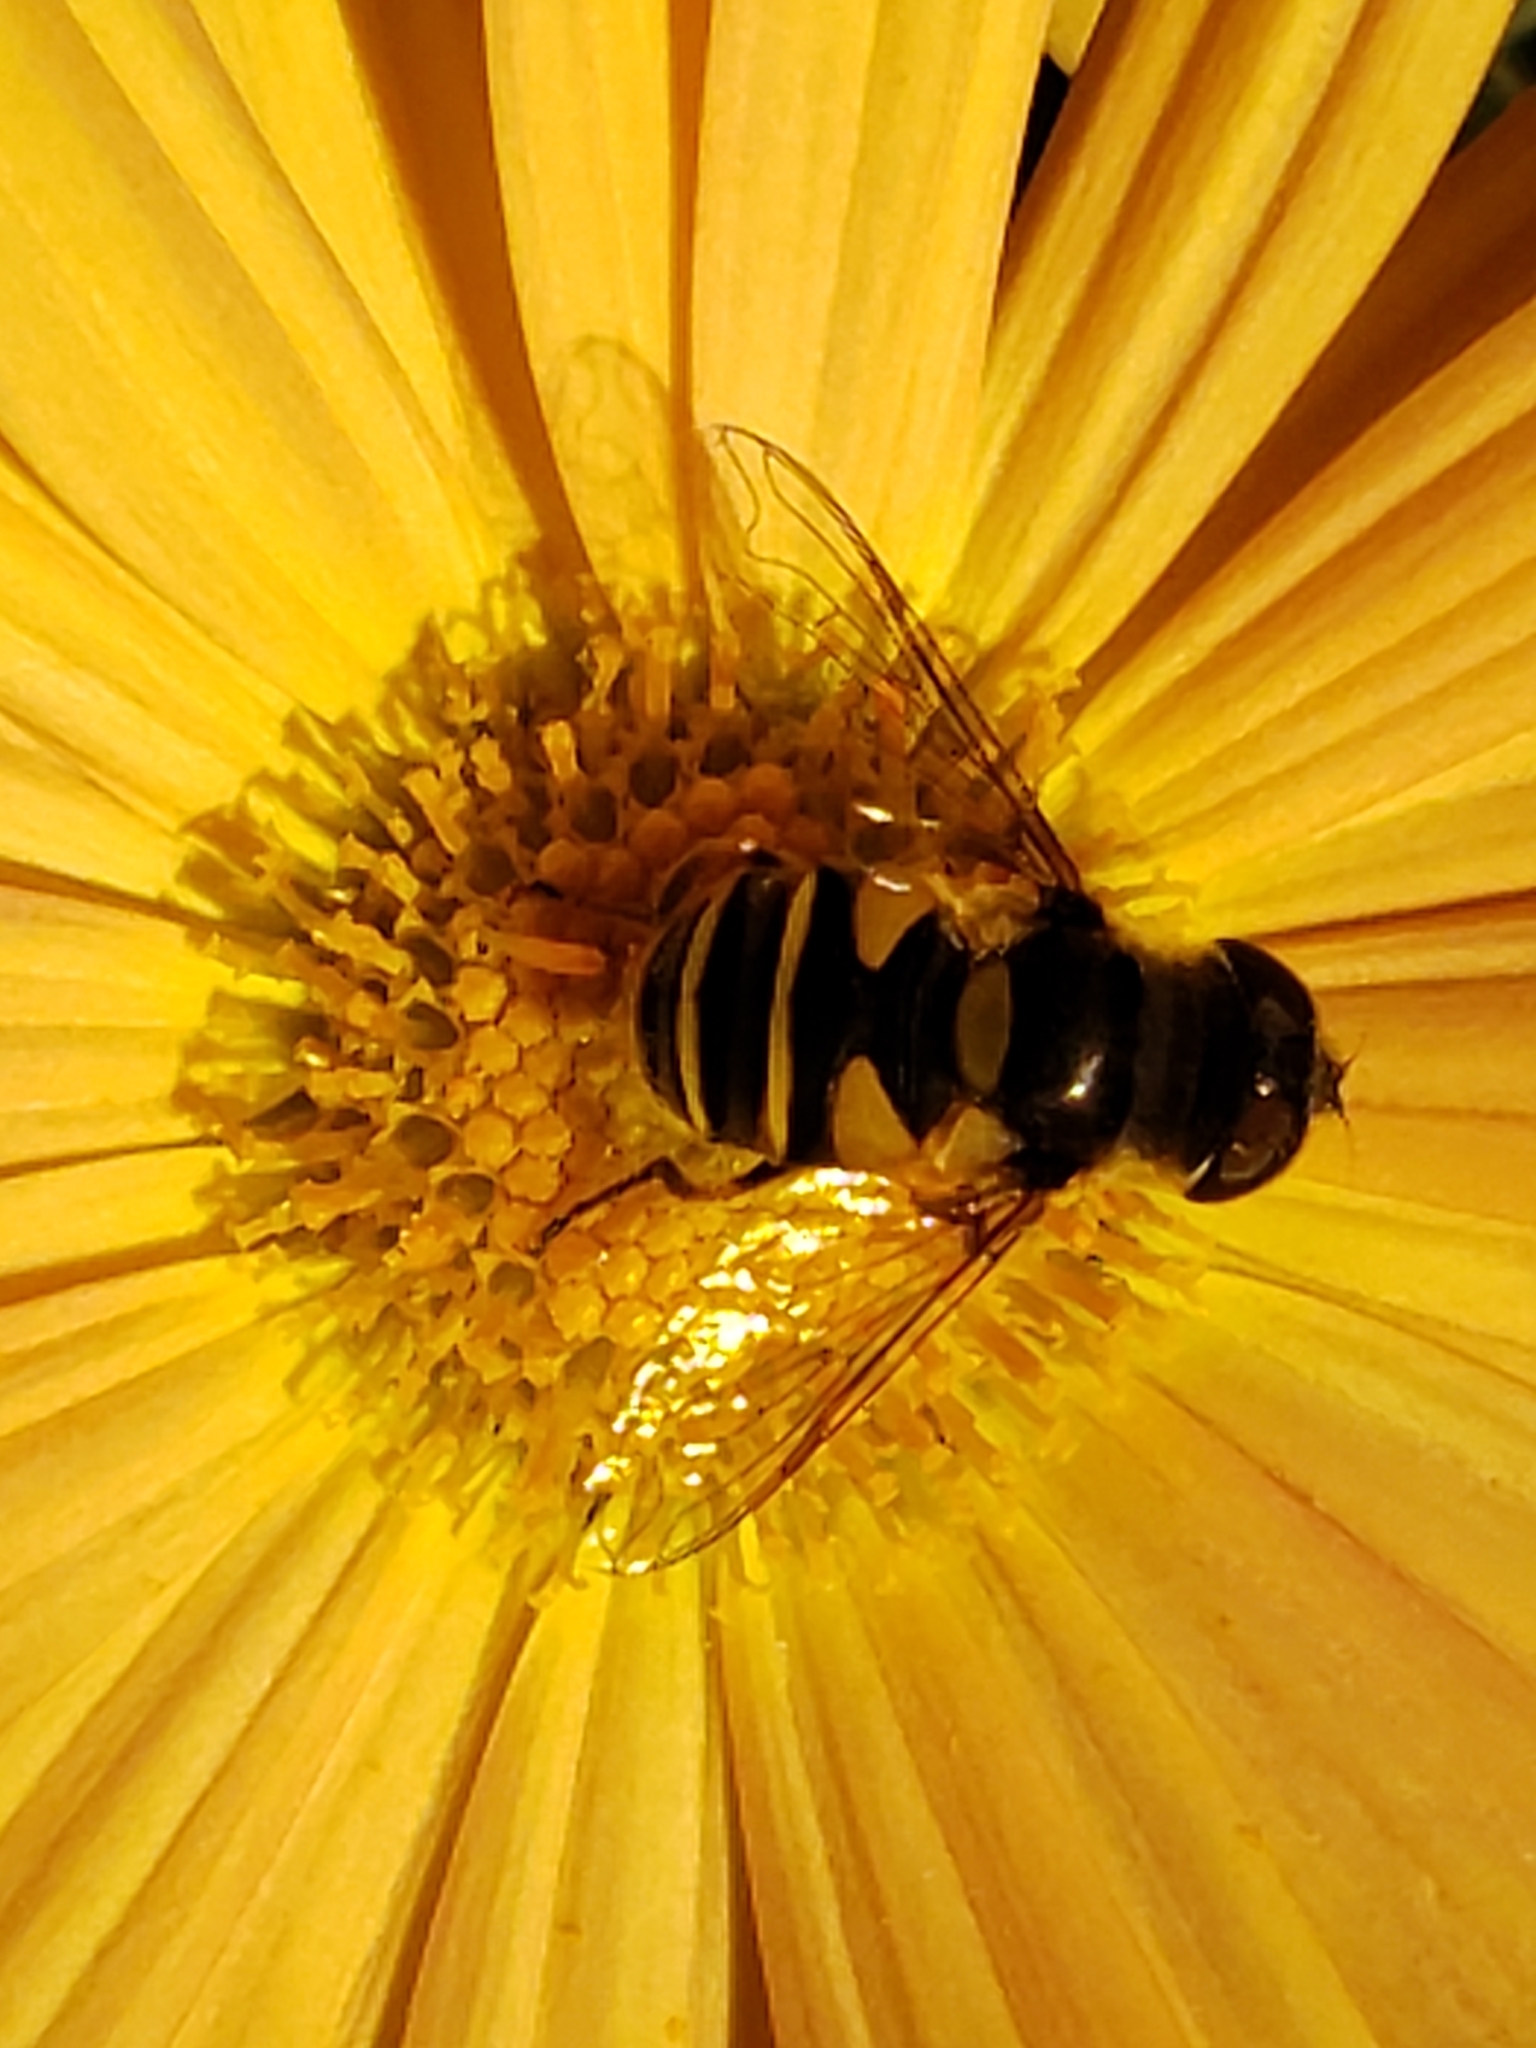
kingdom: Animalia
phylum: Arthropoda
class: Insecta
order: Diptera
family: Syrphidae
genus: Eristalis
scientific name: Eristalis transversa
